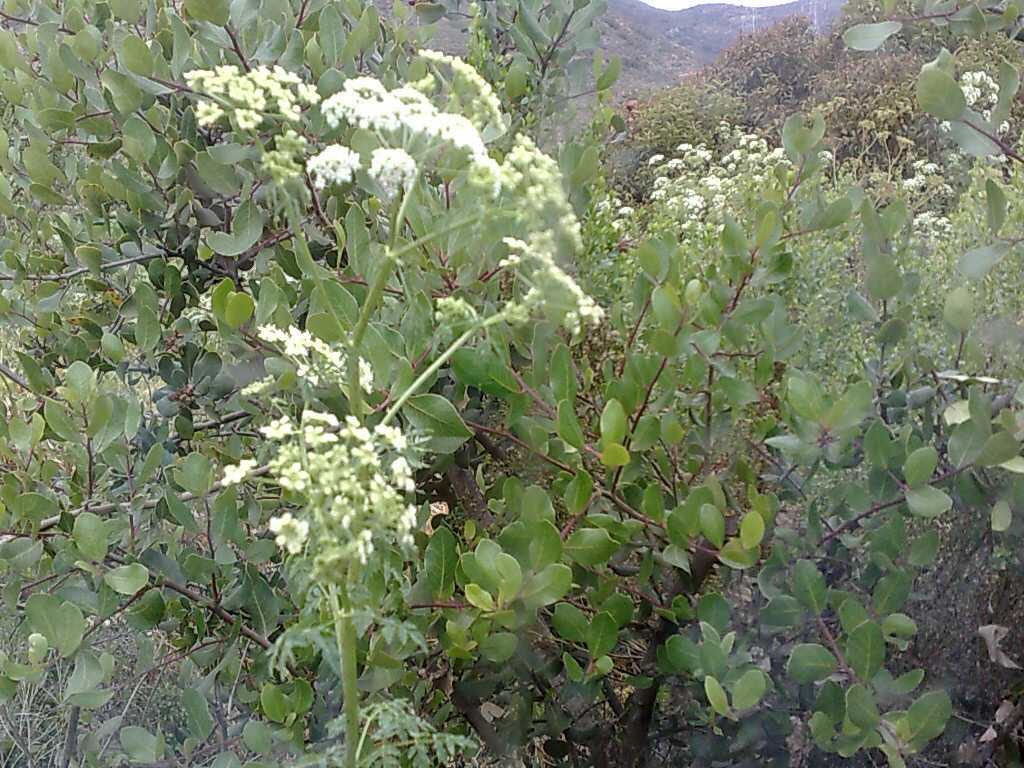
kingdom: Plantae
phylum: Tracheophyta
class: Magnoliopsida
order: Sapindales
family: Anacardiaceae
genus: Rhus
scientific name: Rhus integrifolia
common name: Lemonade sumac
